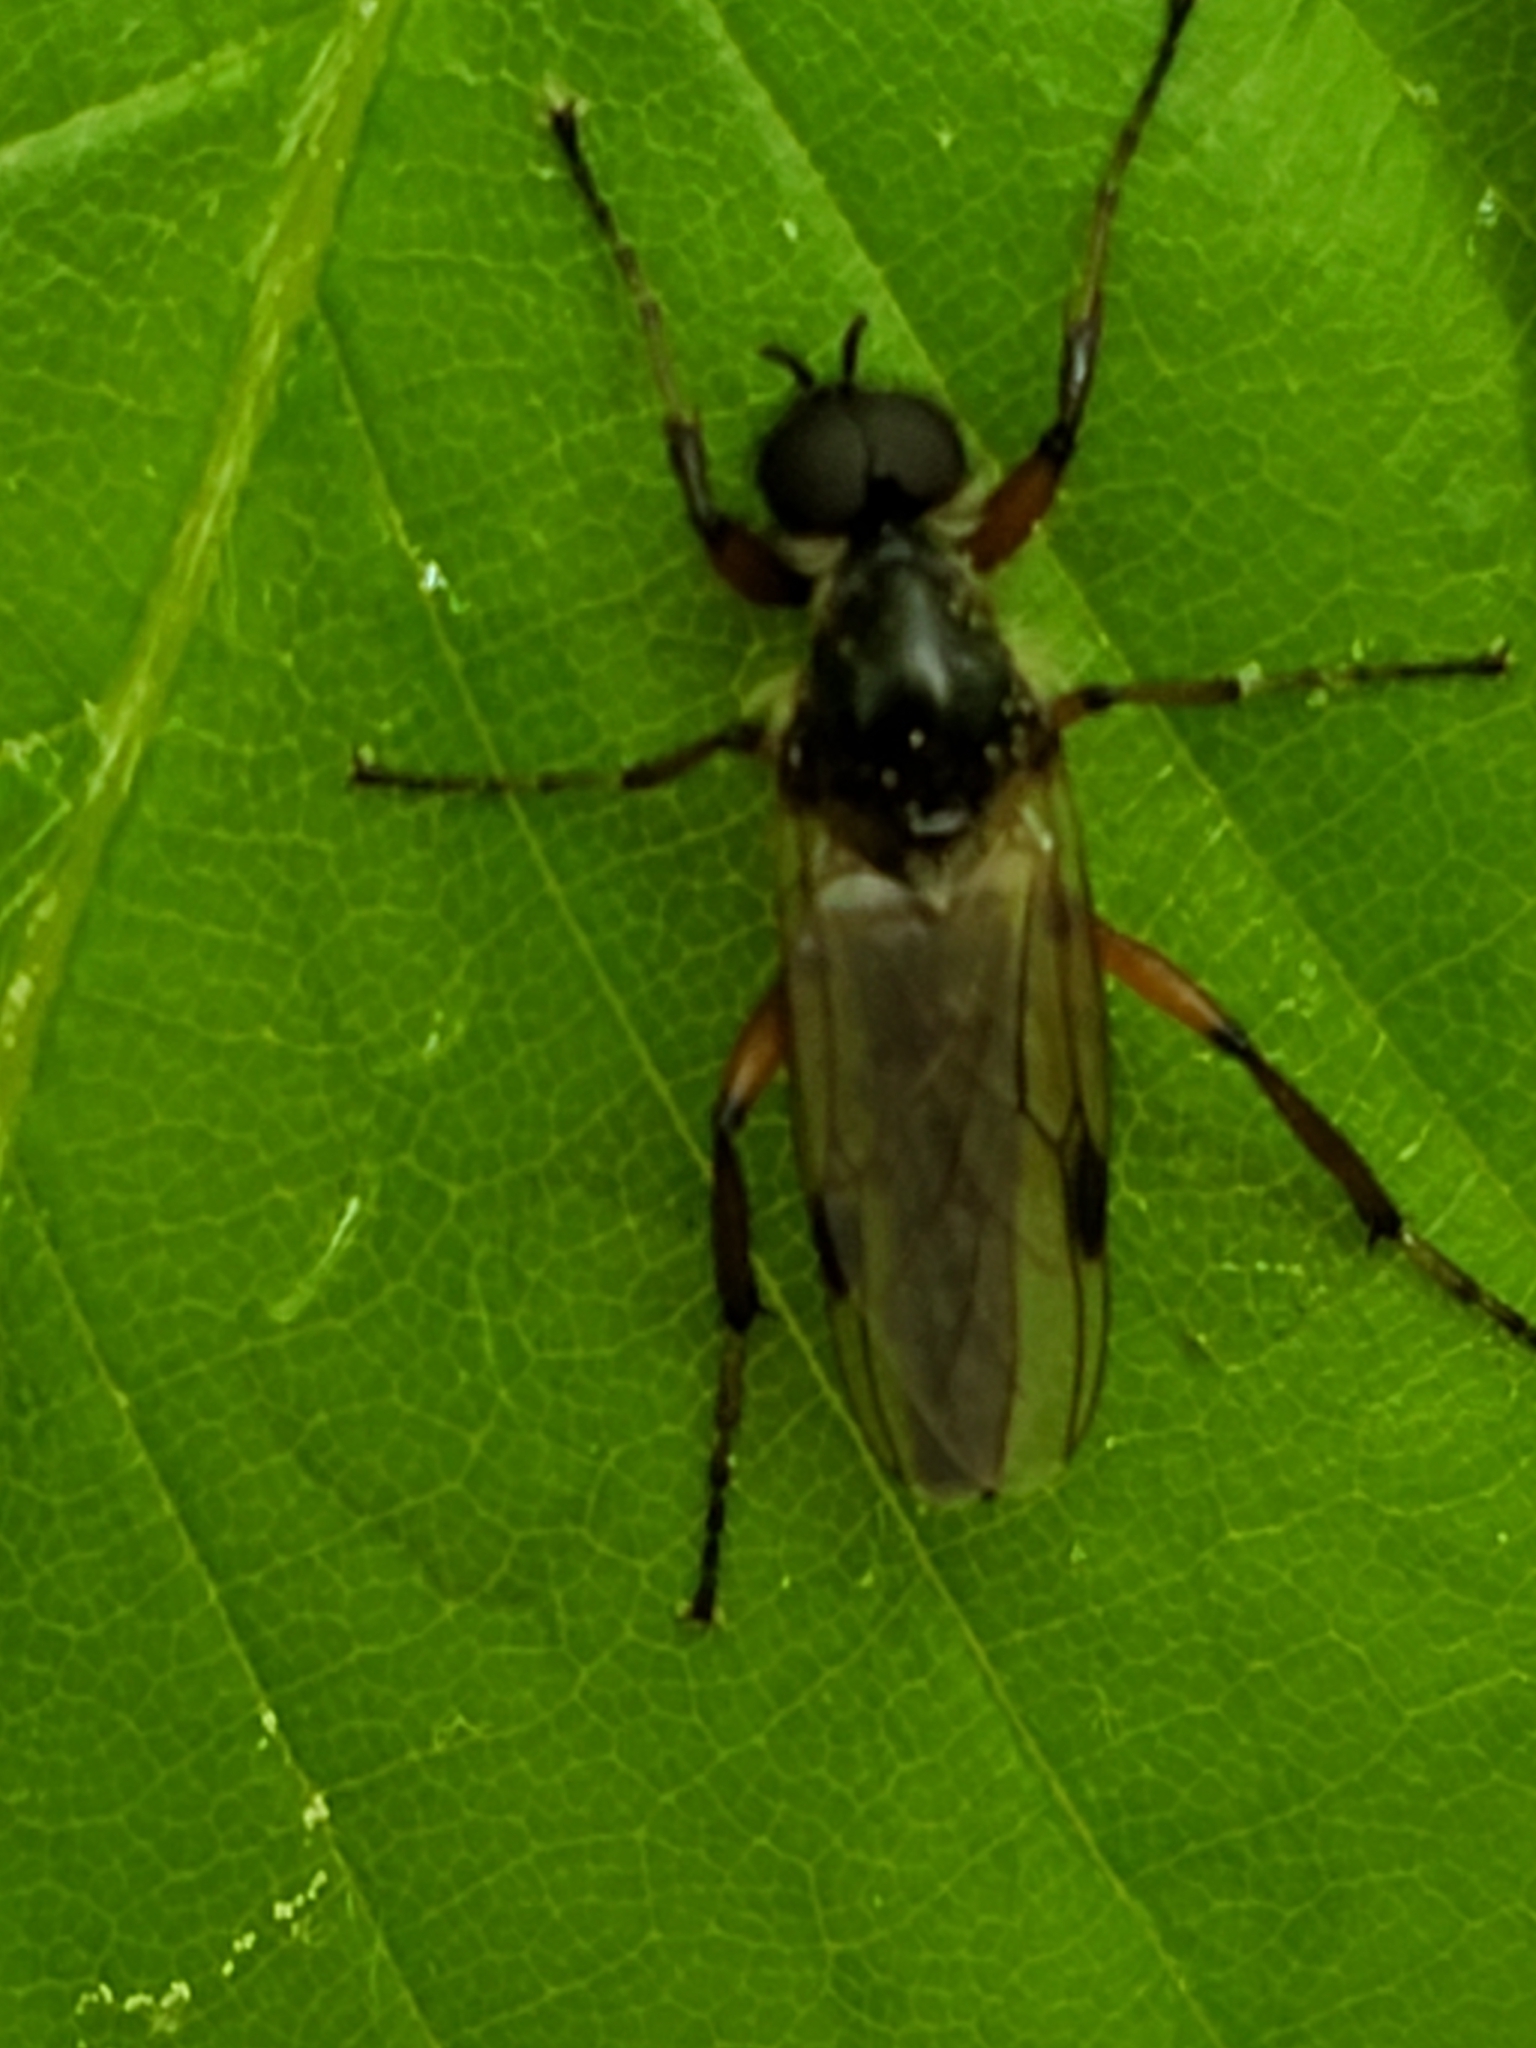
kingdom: Animalia
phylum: Arthropoda
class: Insecta
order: Diptera
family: Bibionidae
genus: Bibio
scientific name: Bibio articulatus
